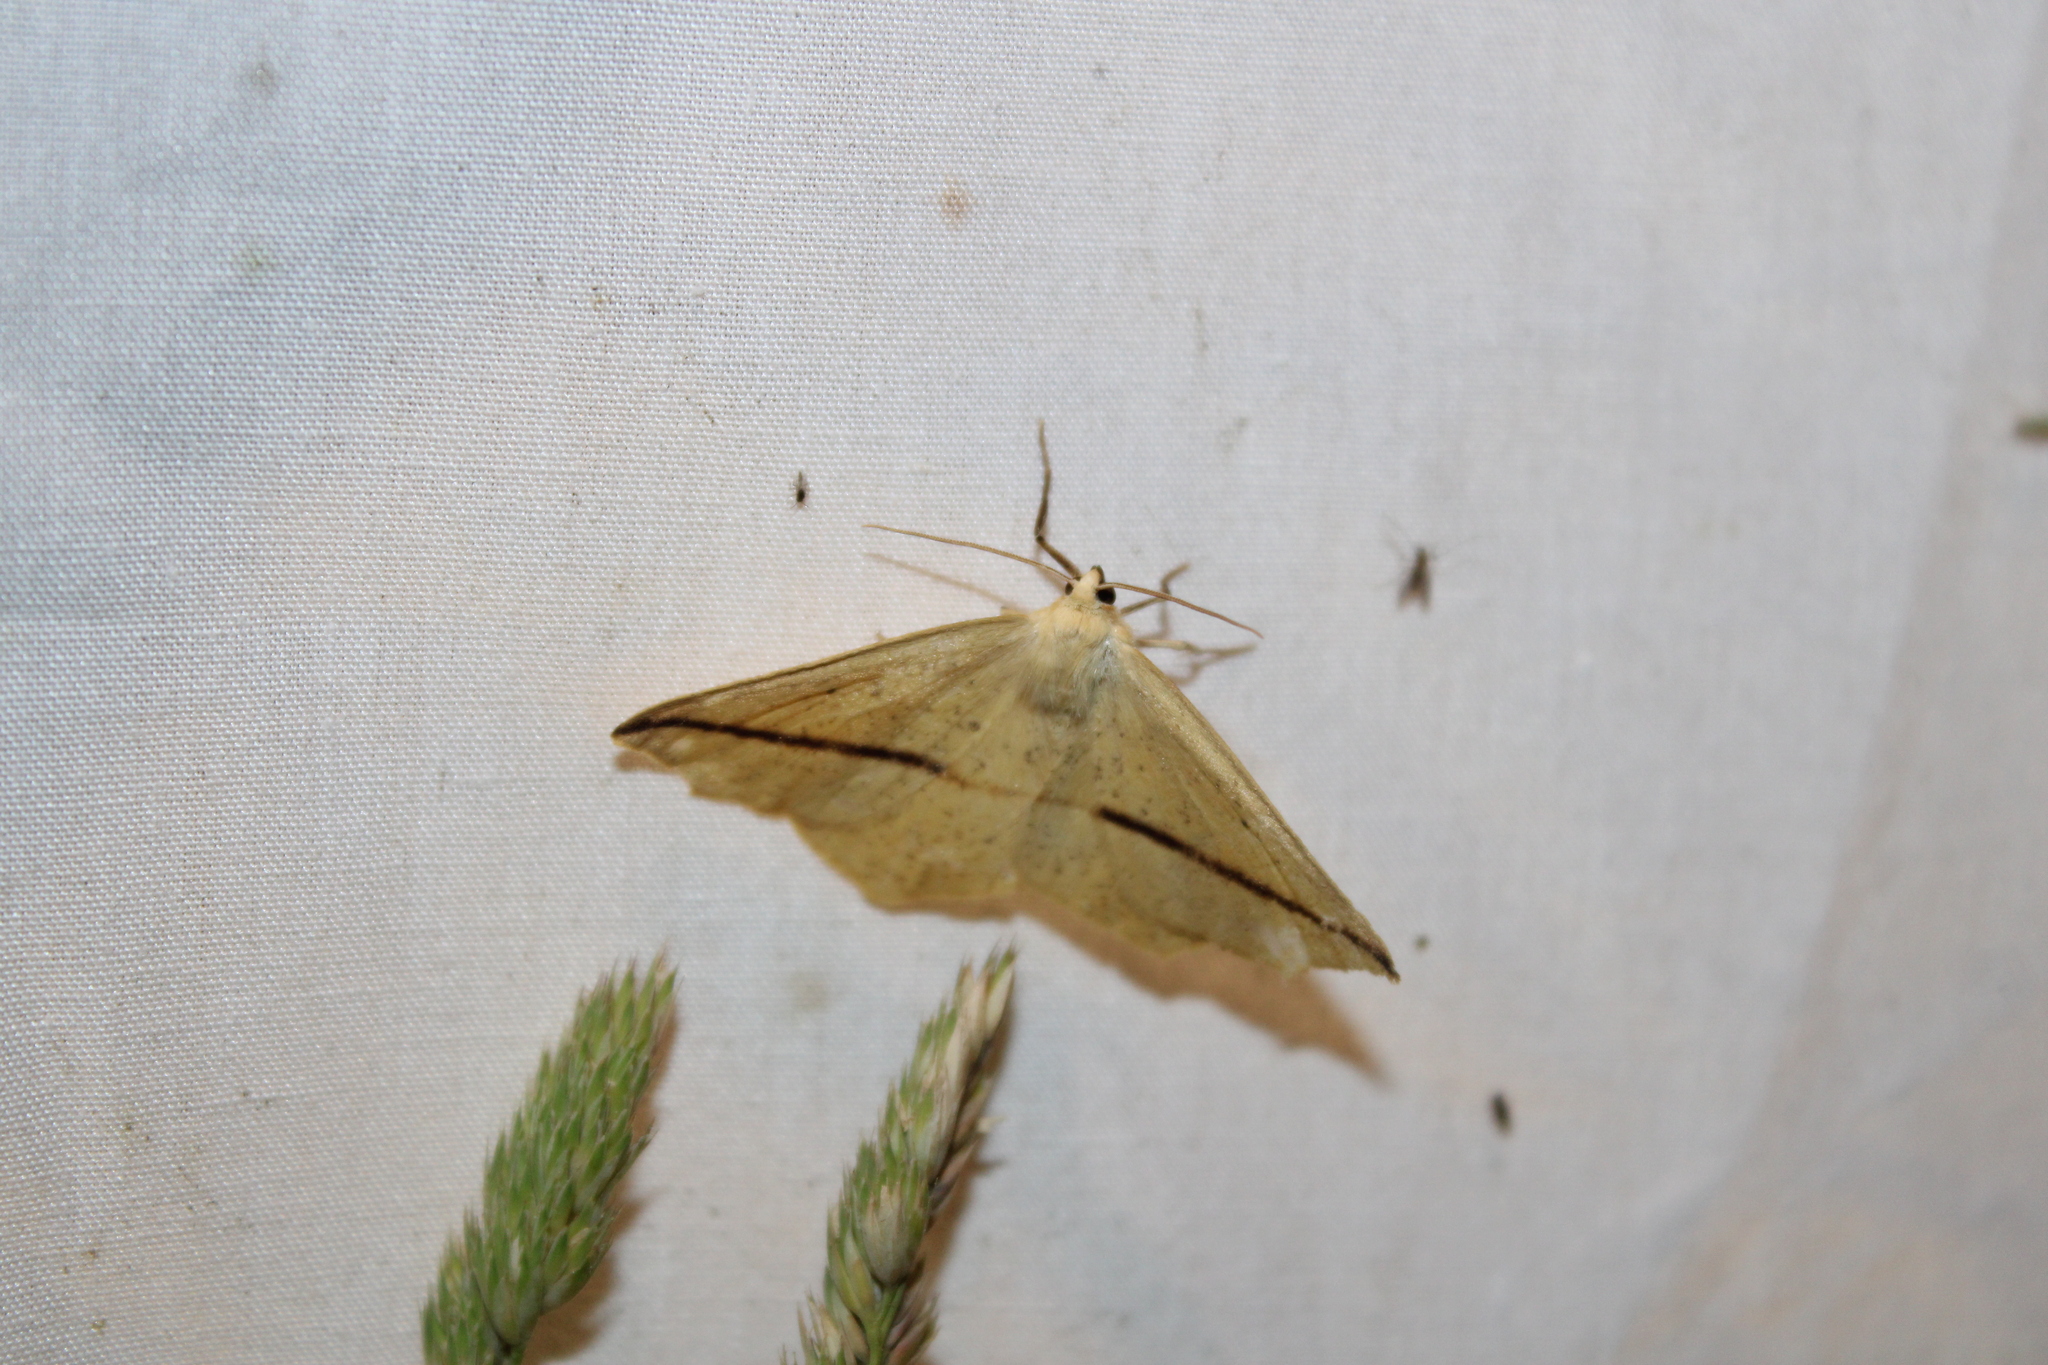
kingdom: Animalia
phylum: Arthropoda
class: Insecta
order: Lepidoptera
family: Geometridae
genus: Tetracis
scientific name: Tetracis crocallata
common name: Yellow slant-line
